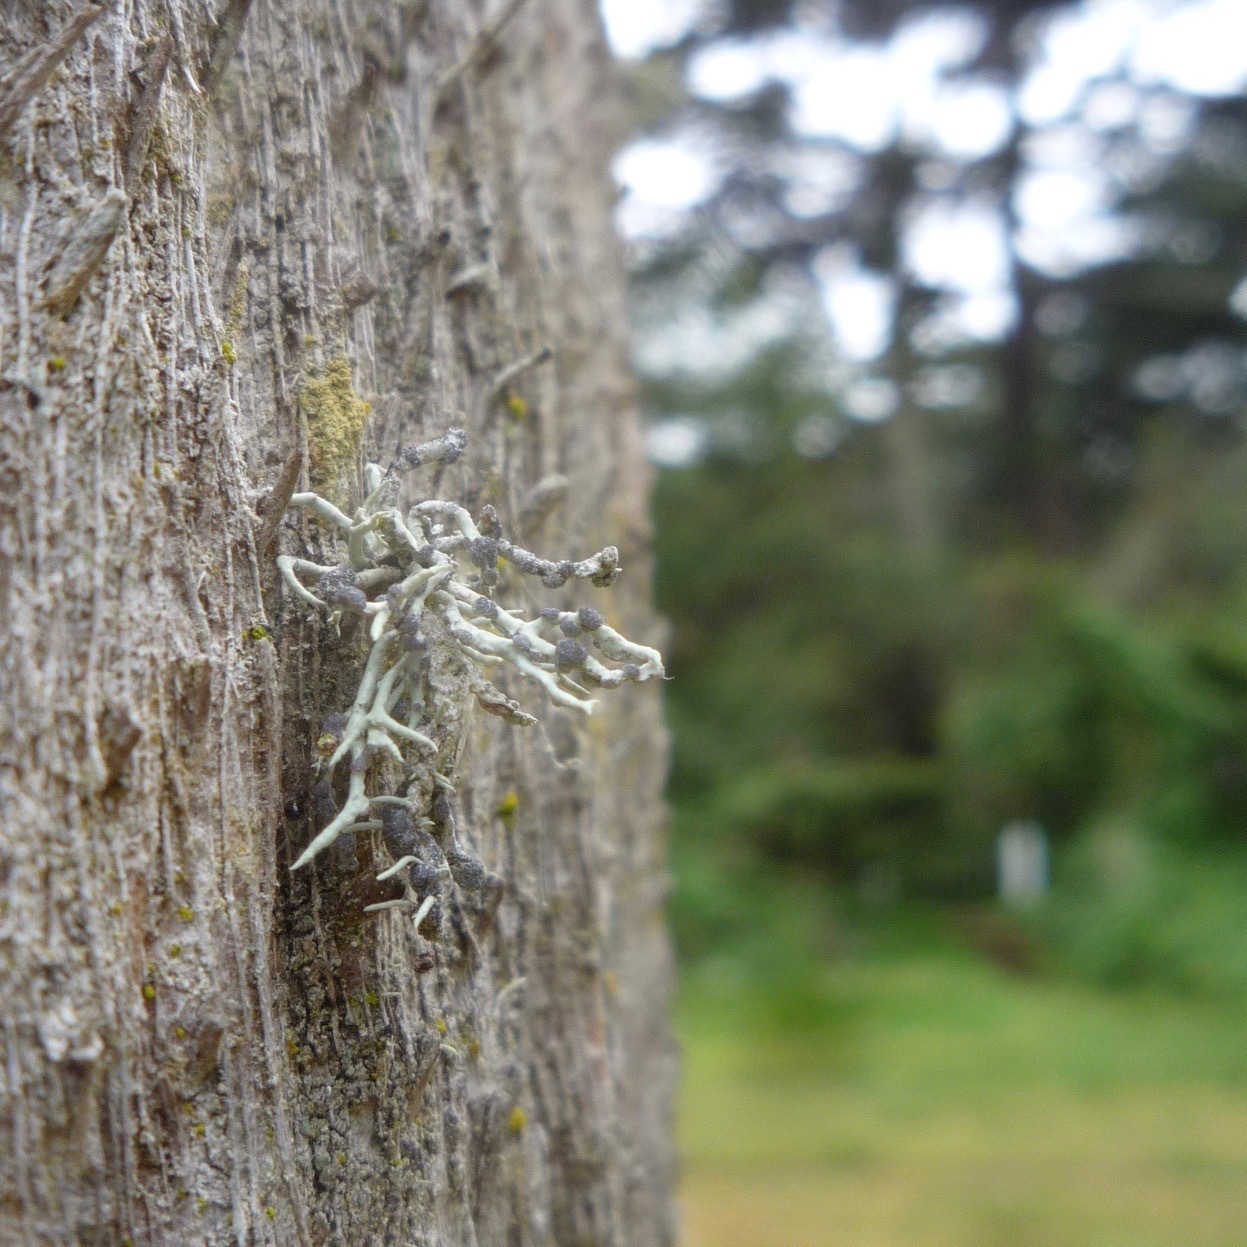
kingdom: Fungi
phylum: Ascomycota
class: Lecanoromycetes
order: Lecanorales
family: Ramalinaceae
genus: Niebla
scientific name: Niebla cephalota
